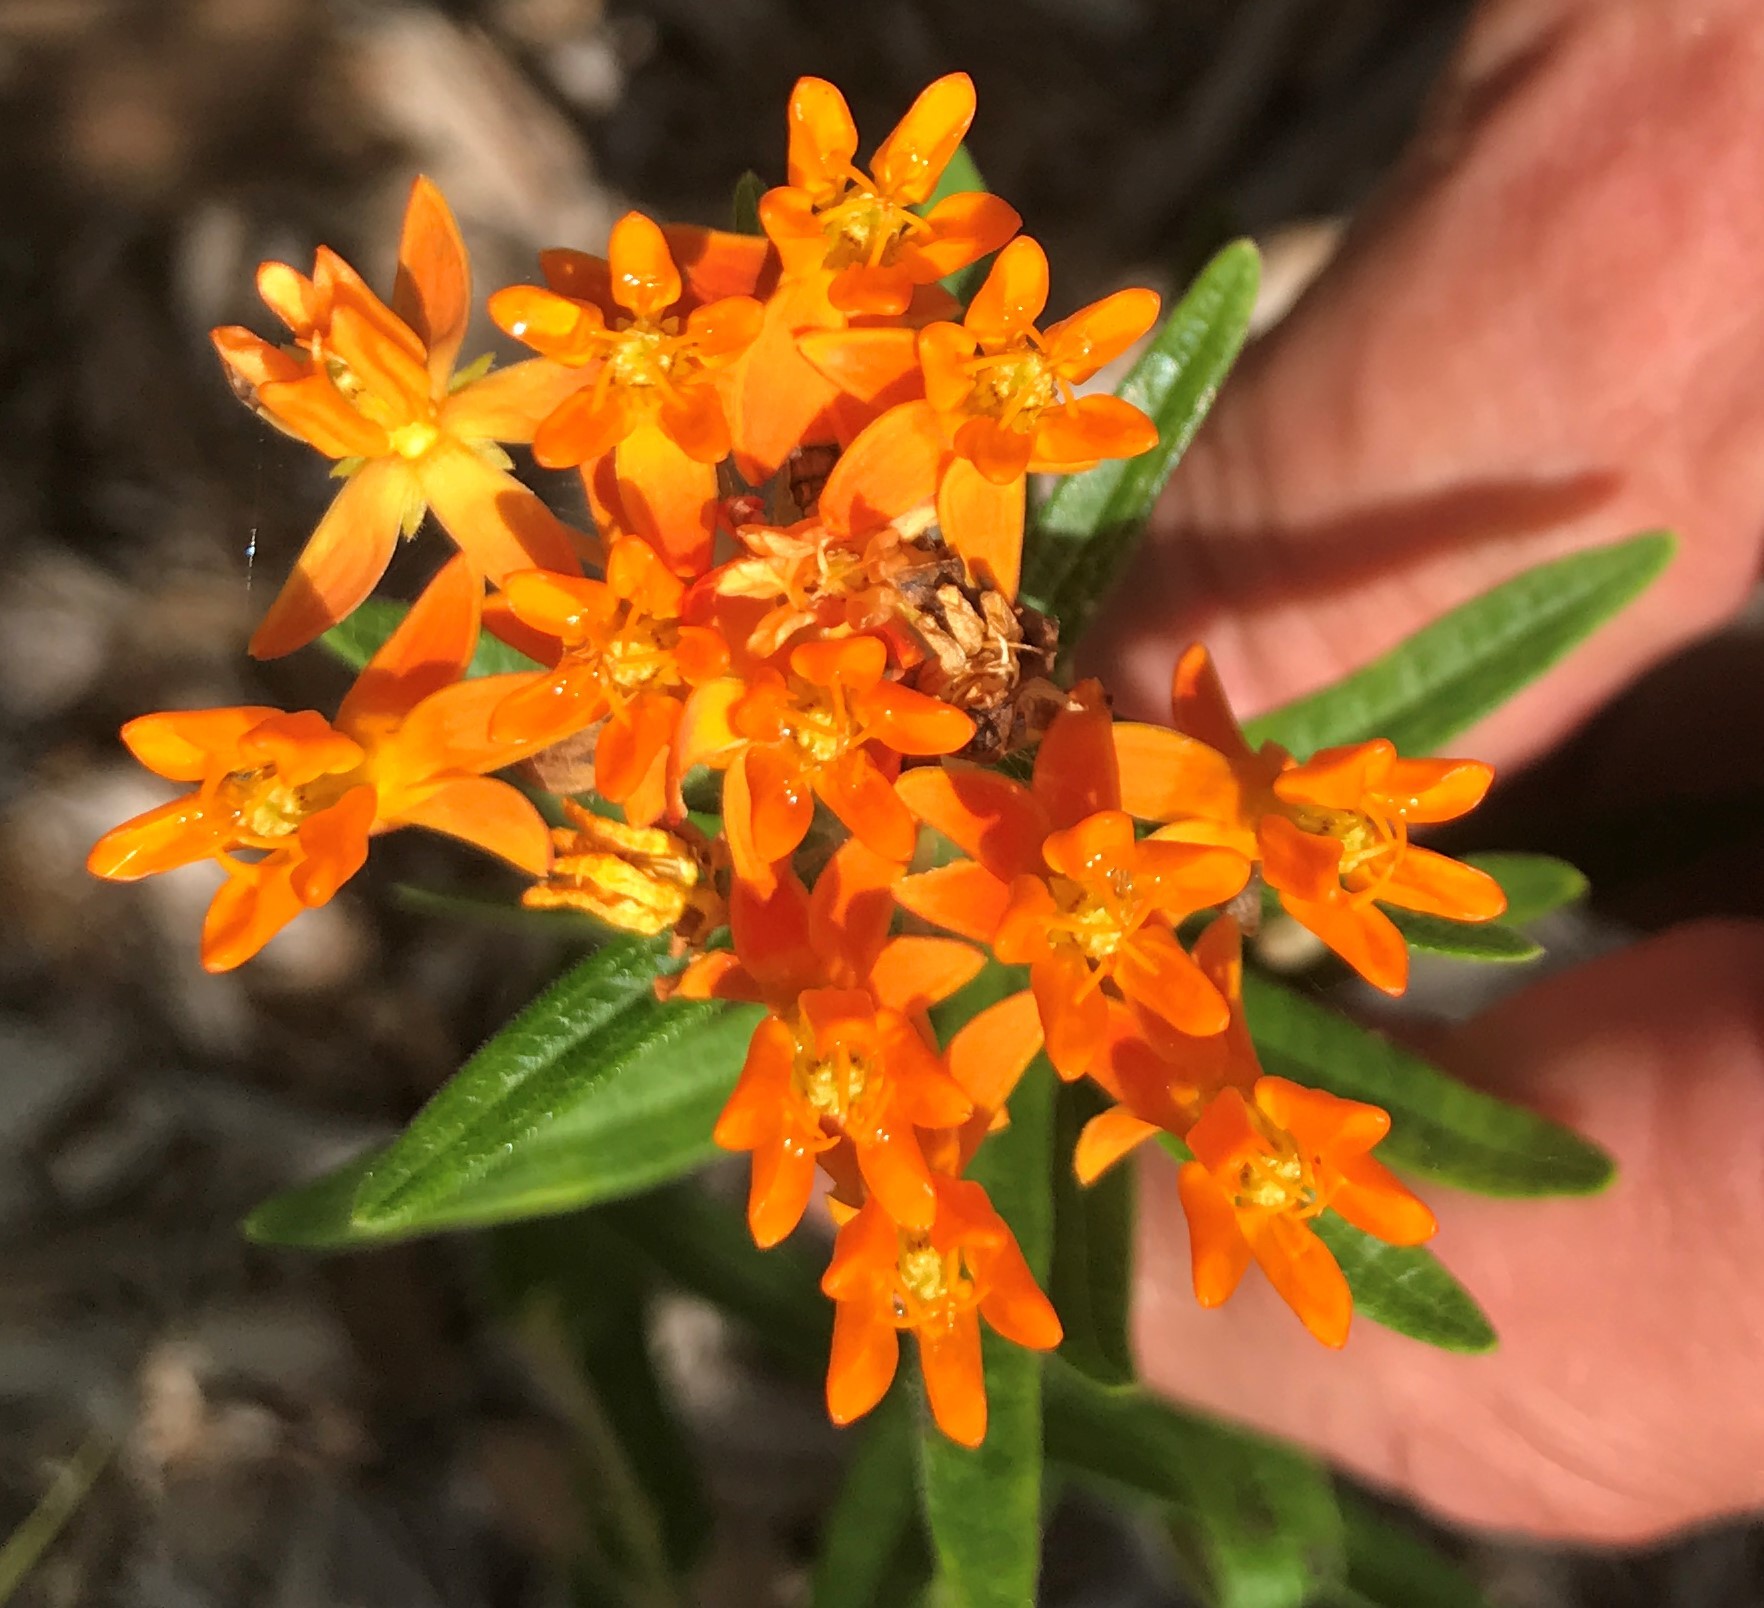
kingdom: Plantae
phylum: Tracheophyta
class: Magnoliopsida
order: Gentianales
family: Apocynaceae
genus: Asclepias
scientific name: Asclepias tuberosa
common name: Butterfly milkweed
